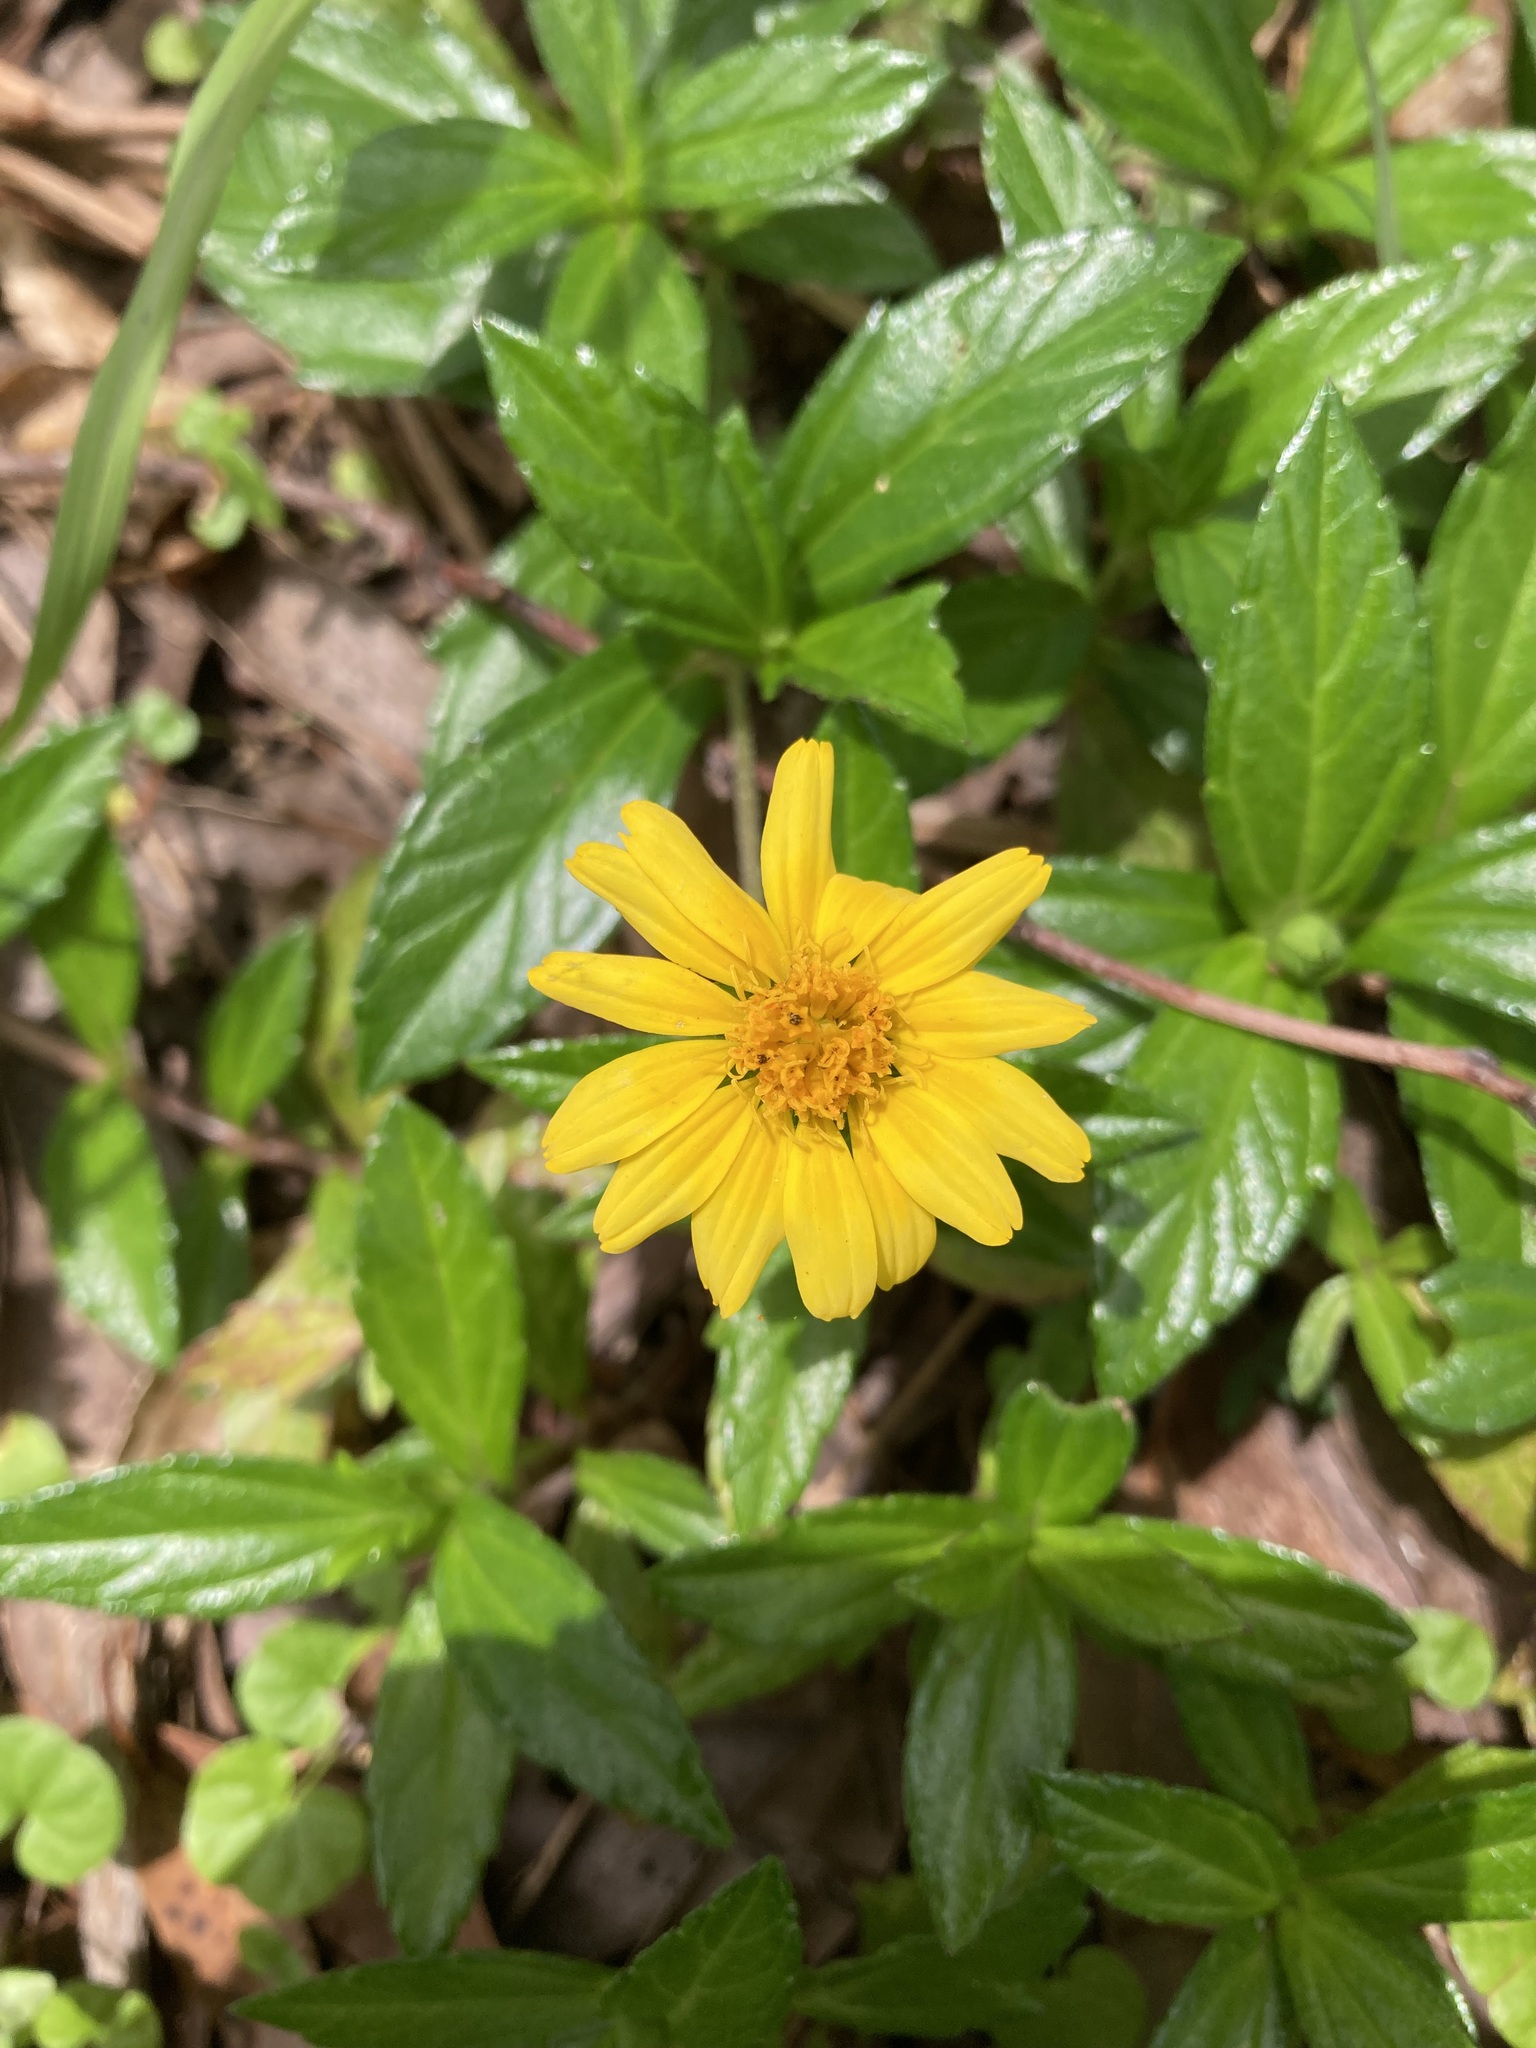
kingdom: Plantae
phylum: Tracheophyta
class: Magnoliopsida
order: Asterales
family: Asteraceae
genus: Sphagneticola
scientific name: Sphagneticola trilobata
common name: Bay biscayne creeping-oxeye
